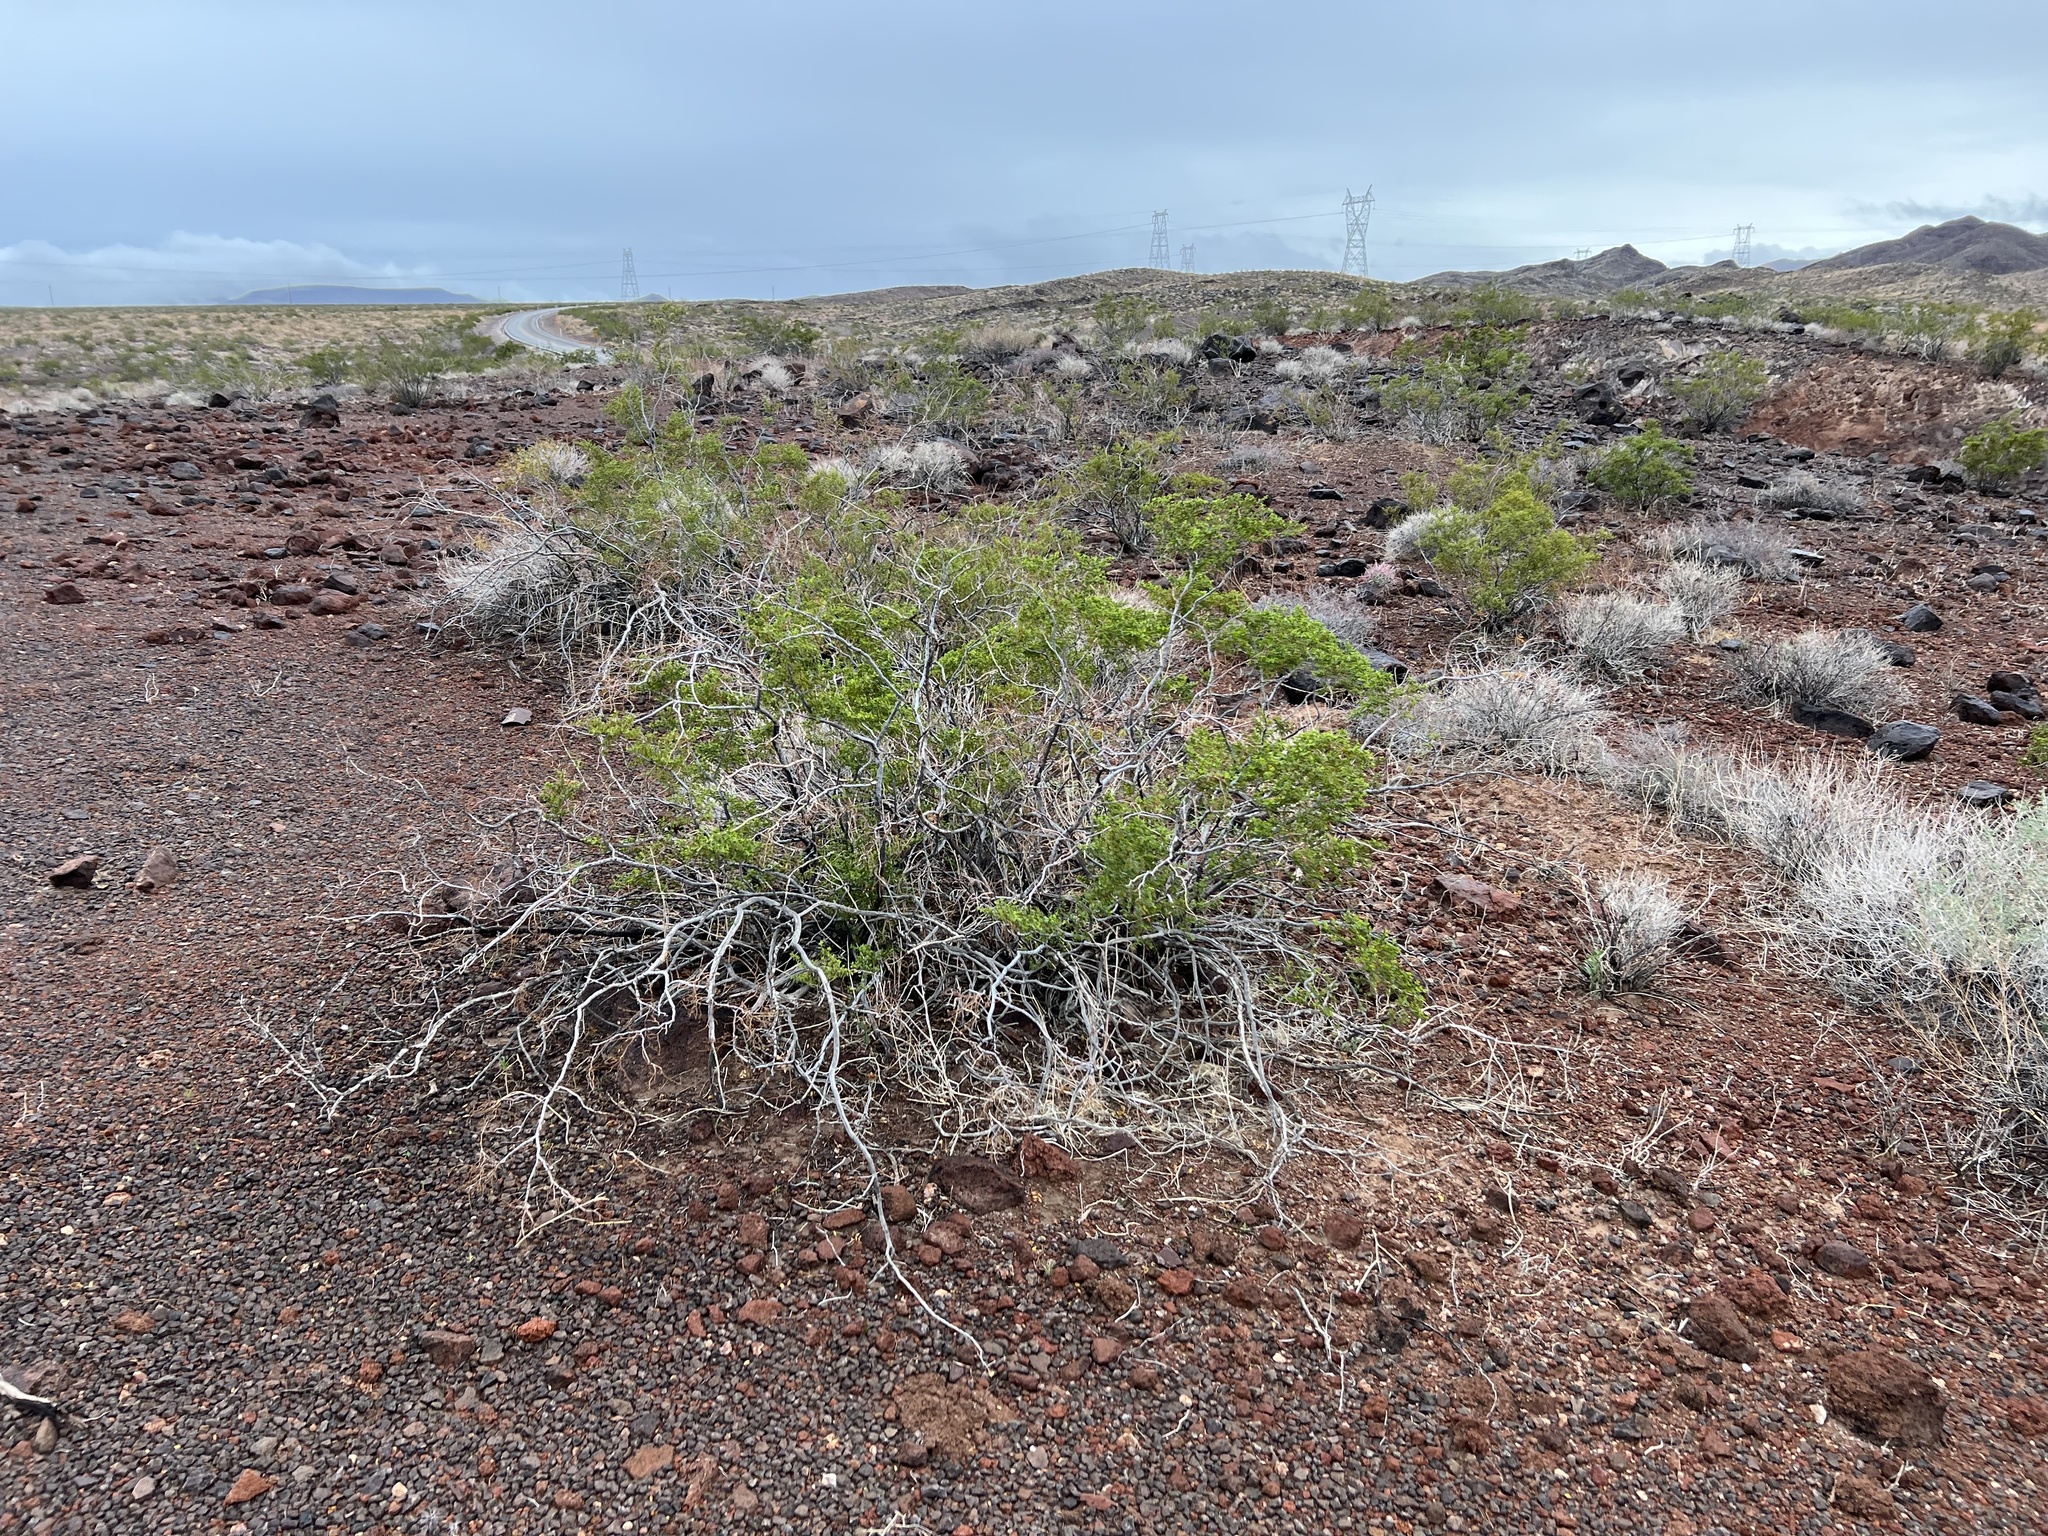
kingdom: Plantae
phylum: Tracheophyta
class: Magnoliopsida
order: Zygophyllales
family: Zygophyllaceae
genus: Larrea
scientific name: Larrea tridentata
